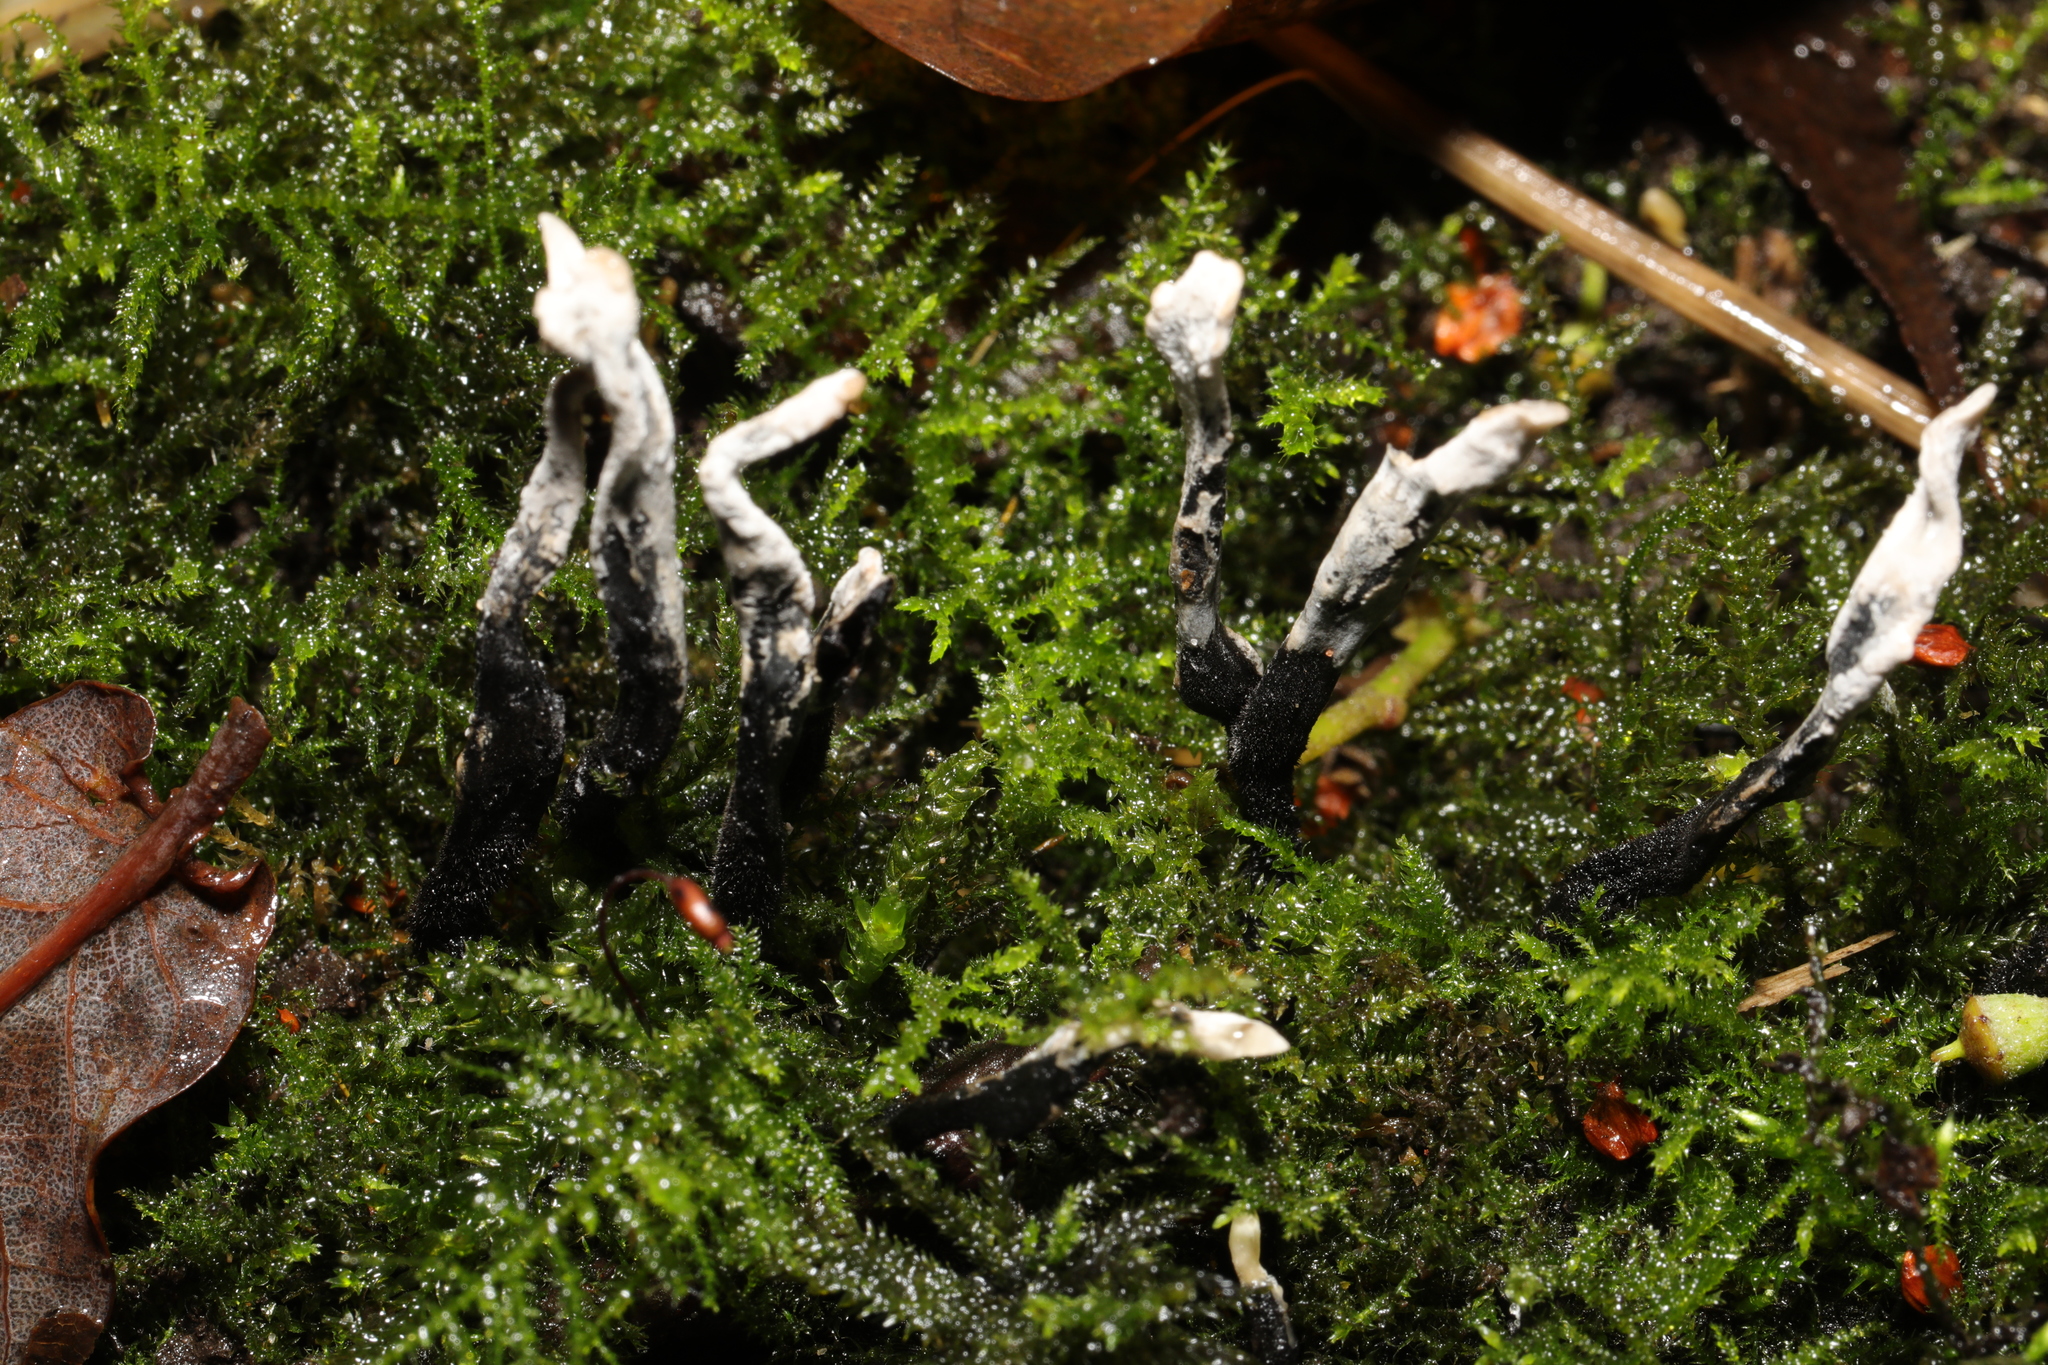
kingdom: Fungi
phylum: Ascomycota
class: Sordariomycetes
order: Xylariales
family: Xylariaceae
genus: Xylaria
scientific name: Xylaria hypoxylon
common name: Candle-snuff fungus
